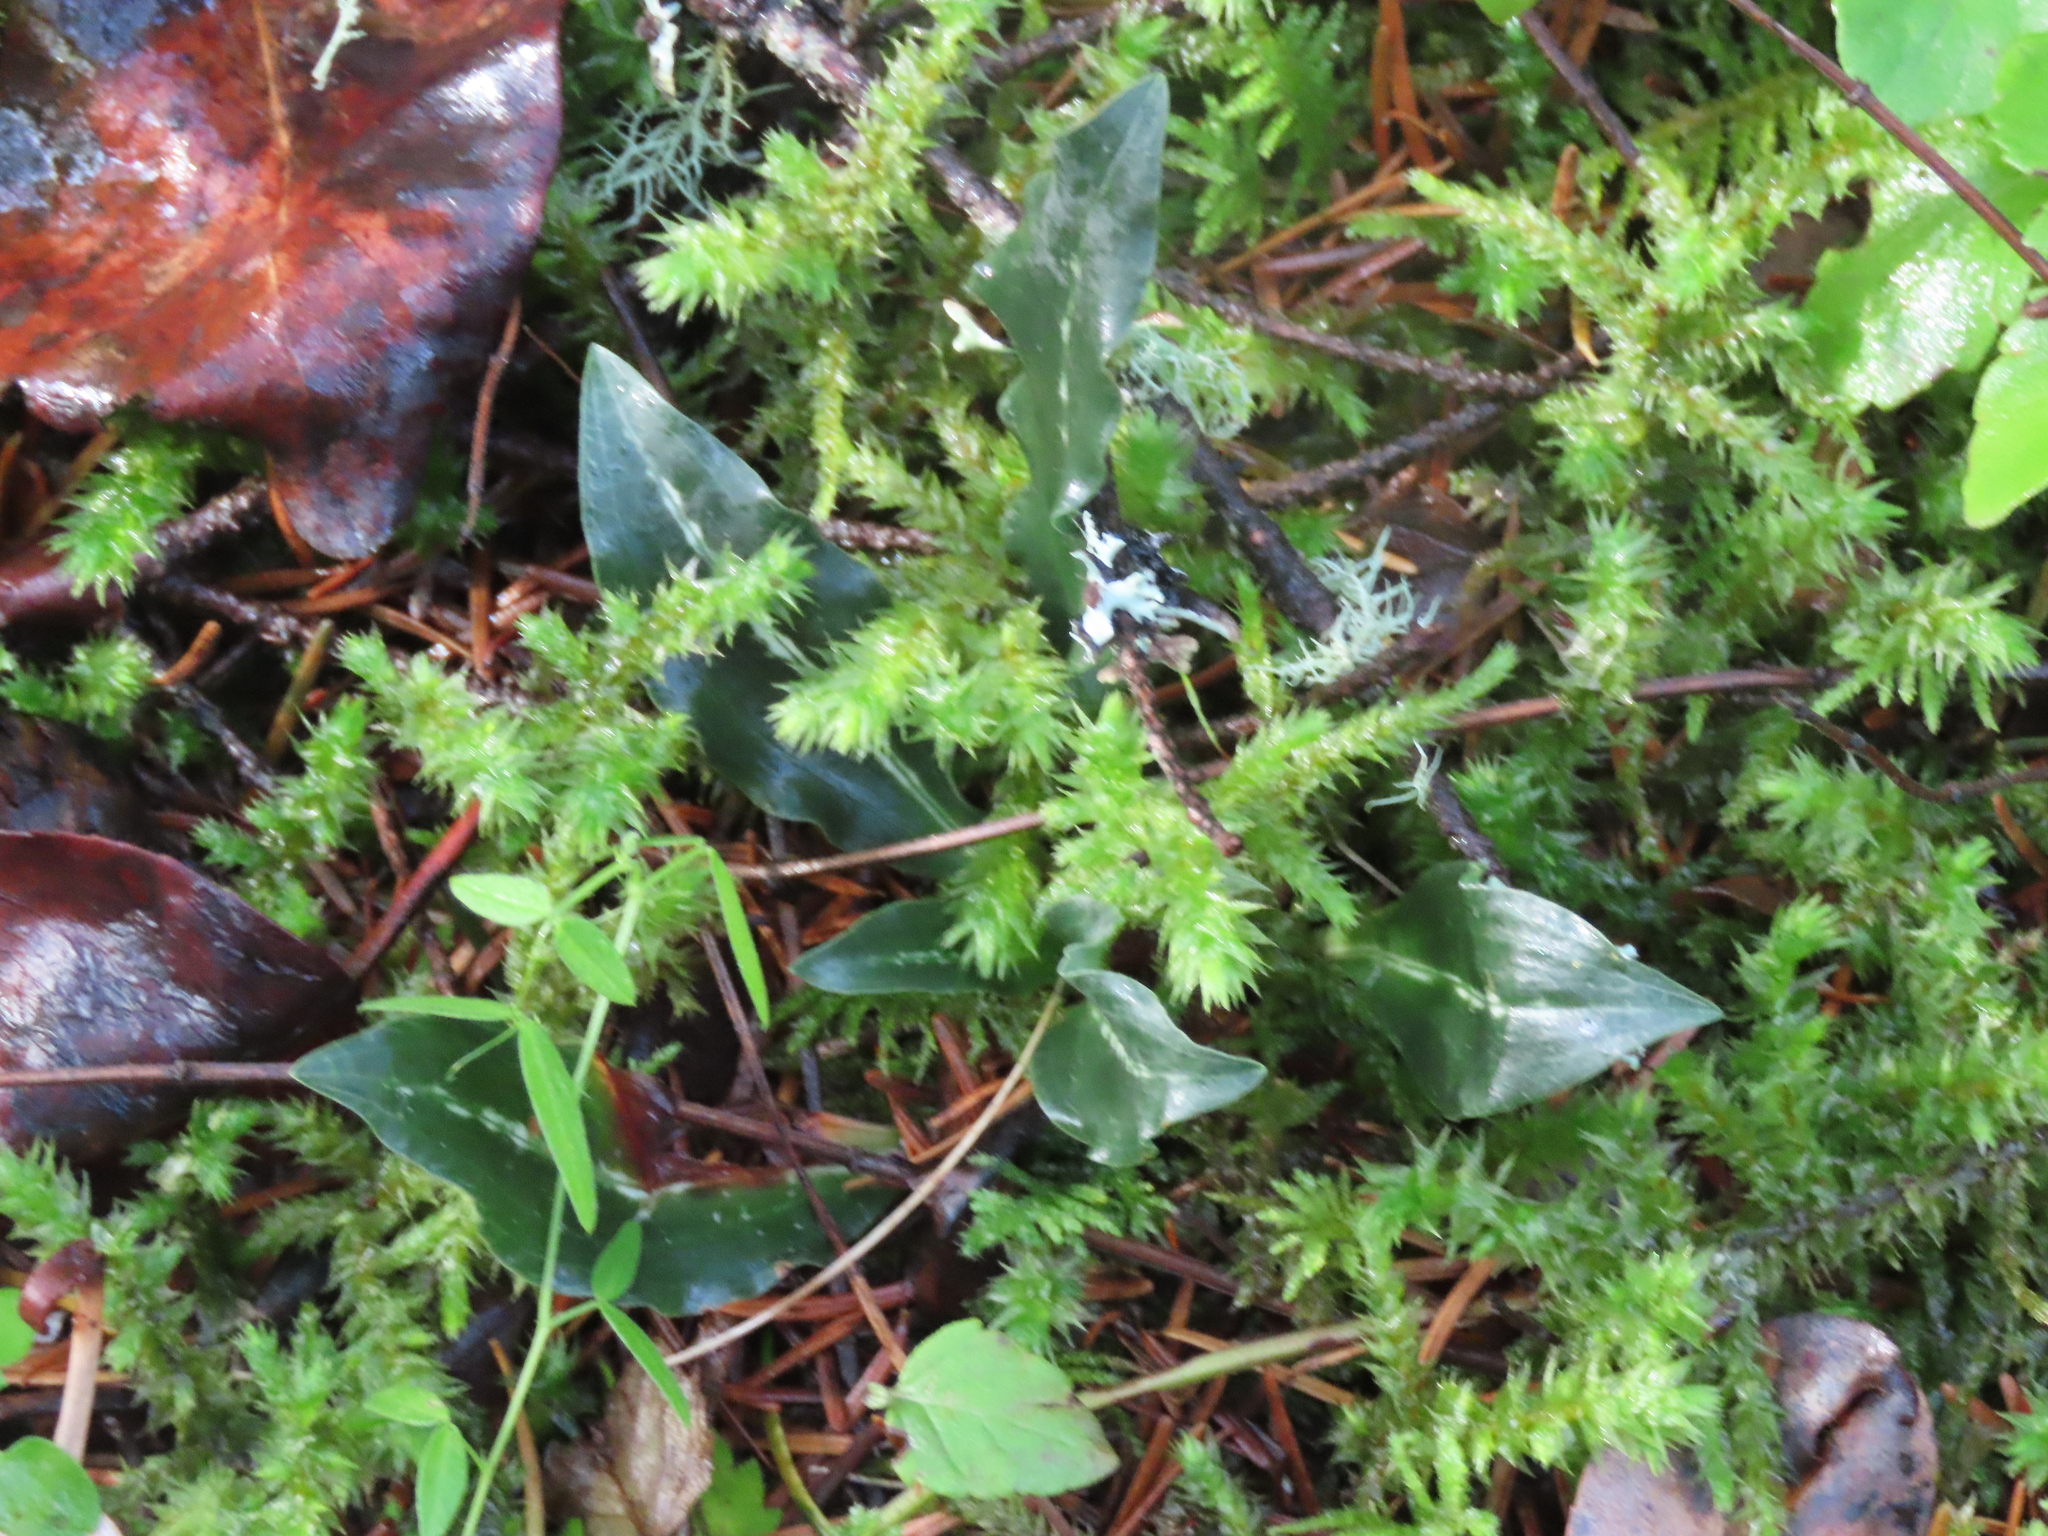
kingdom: Plantae
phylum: Tracheophyta
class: Liliopsida
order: Asparagales
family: Orchidaceae
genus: Goodyera
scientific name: Goodyera oblongifolia
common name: Giant rattlesnake-plantain
